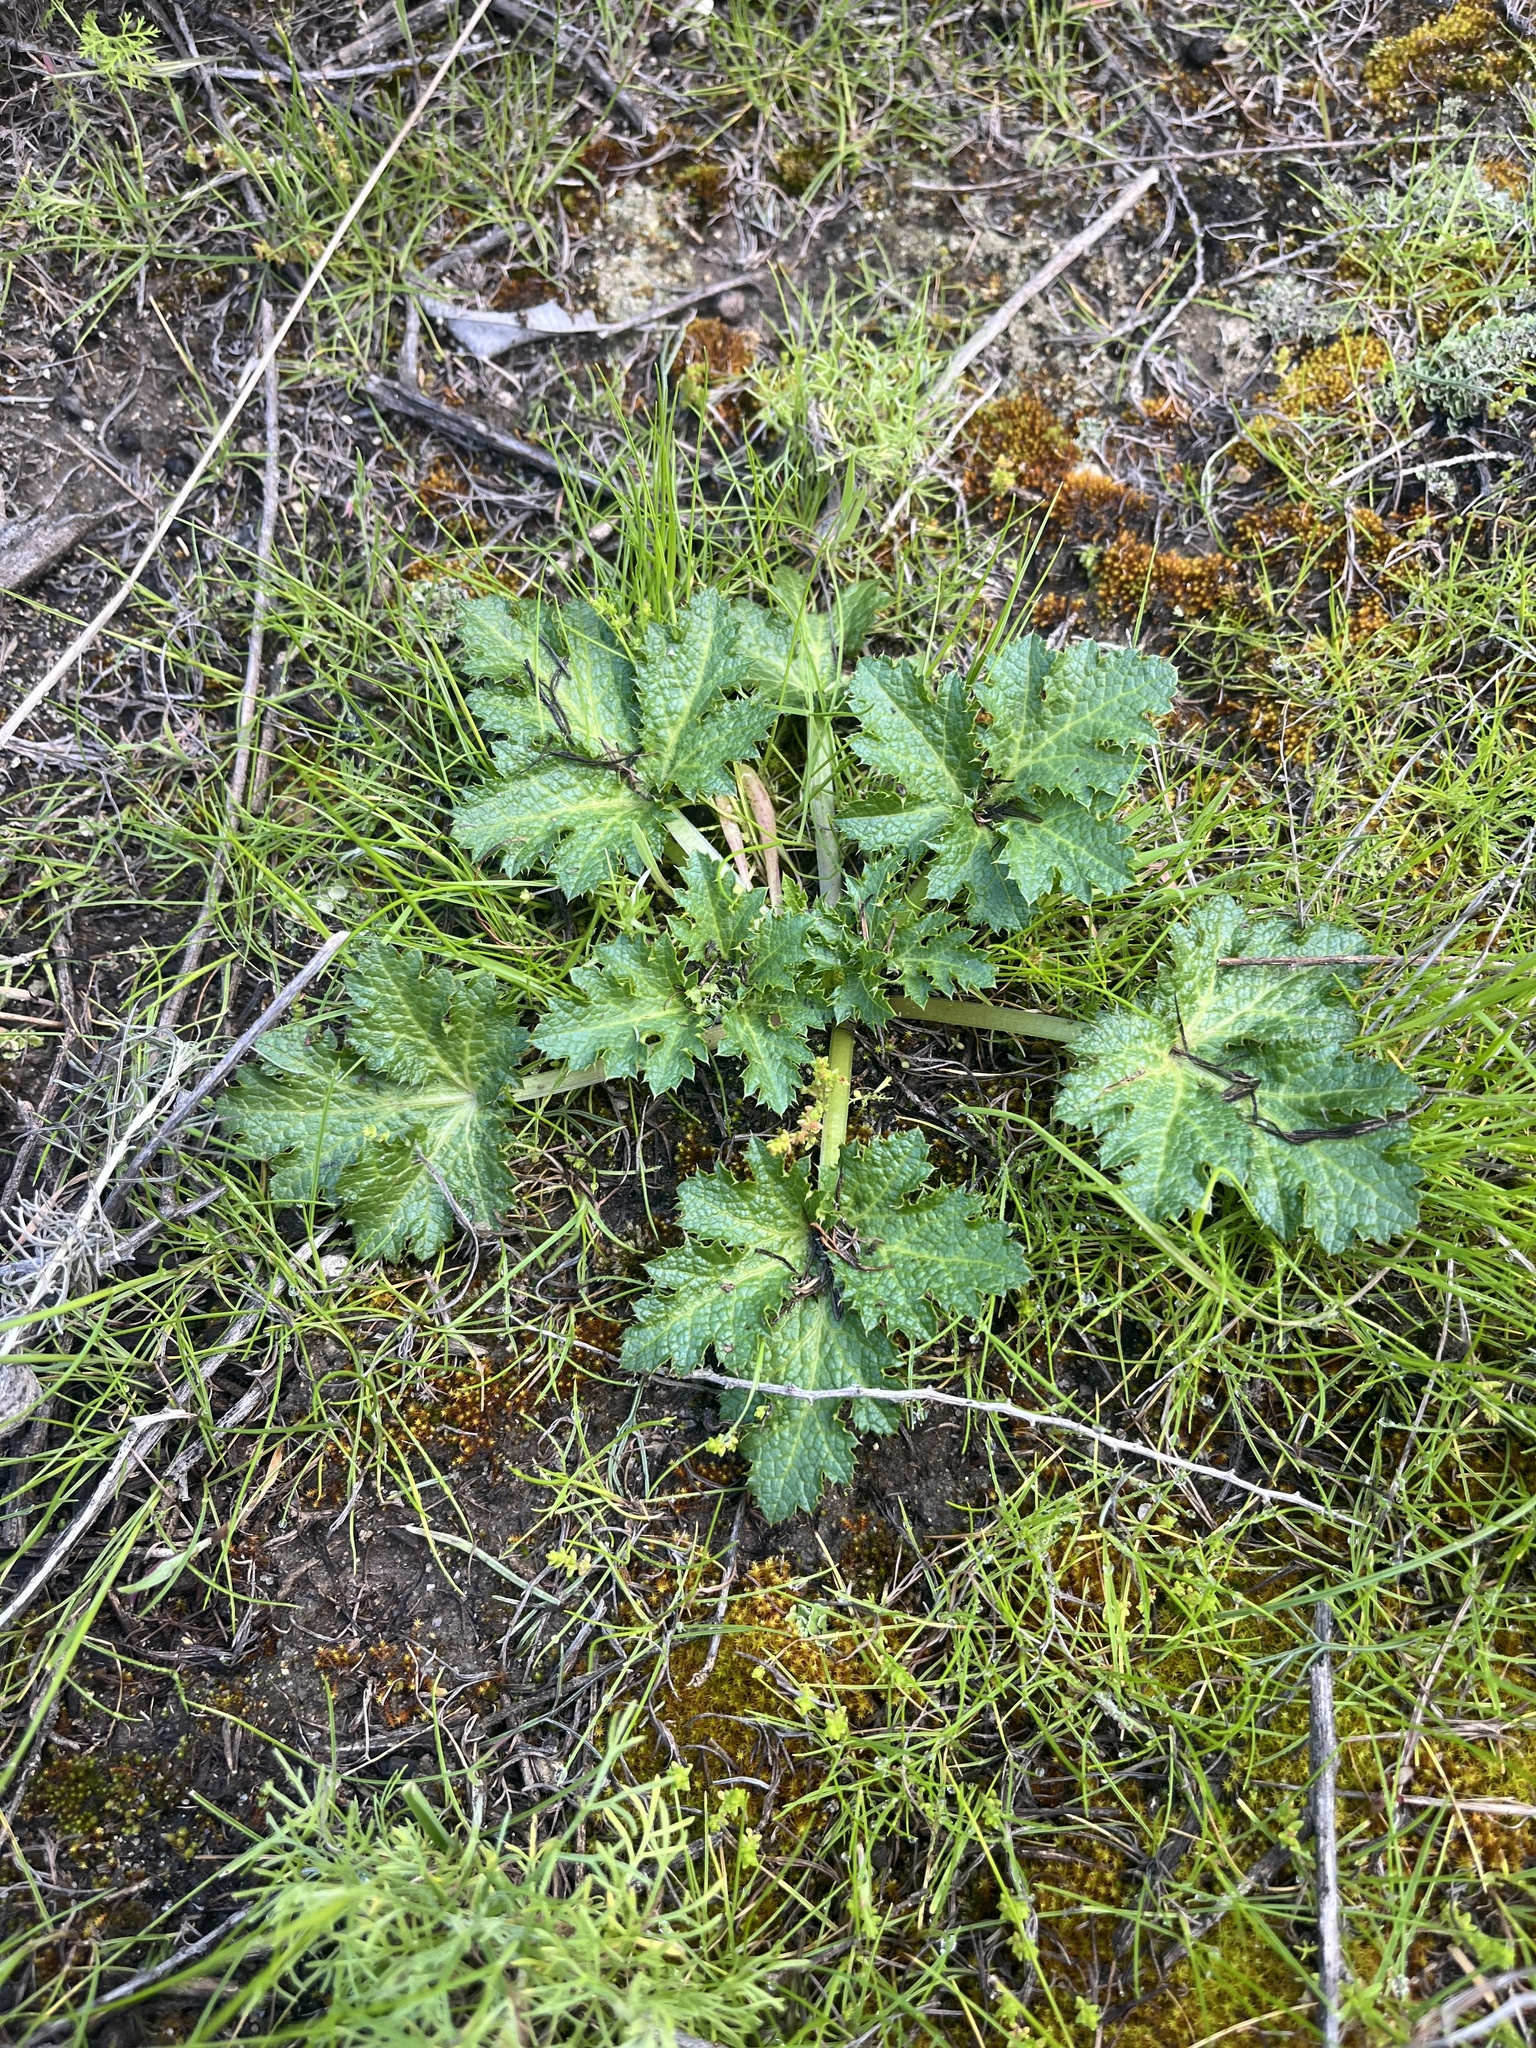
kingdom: Plantae
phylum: Tracheophyta
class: Magnoliopsida
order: Apiales
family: Apiaceae
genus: Sanicula
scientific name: Sanicula crassicaulis
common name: Western snakeroot
